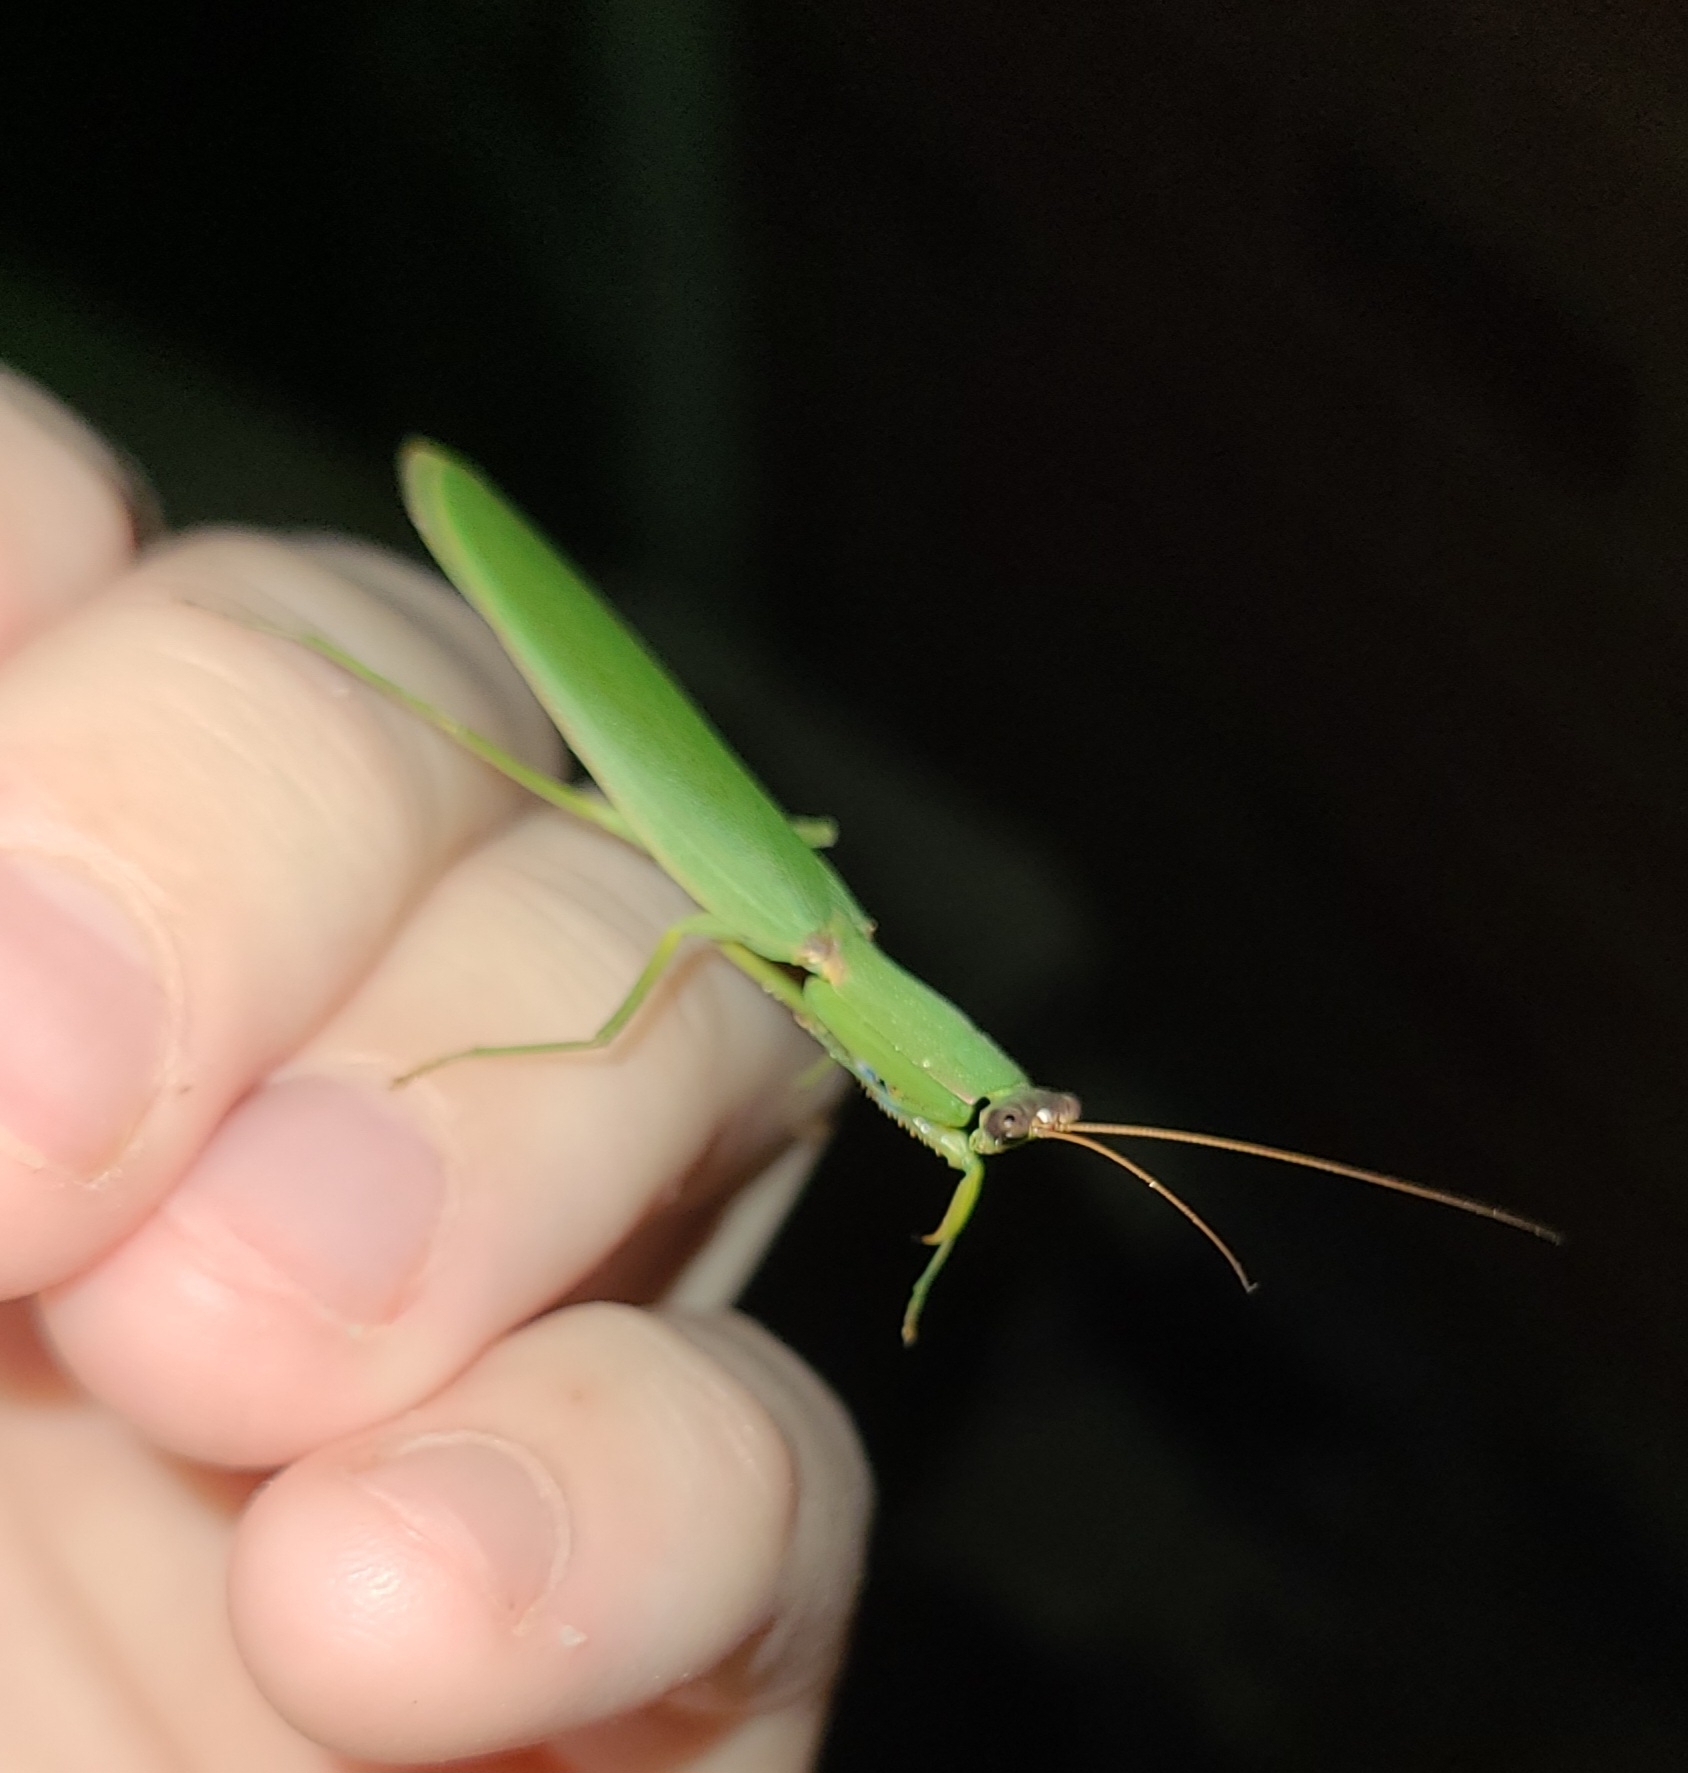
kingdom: Animalia
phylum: Arthropoda
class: Insecta
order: Mantodea
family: Mantidae
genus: Orthodera
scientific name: Orthodera novaezealandiae
